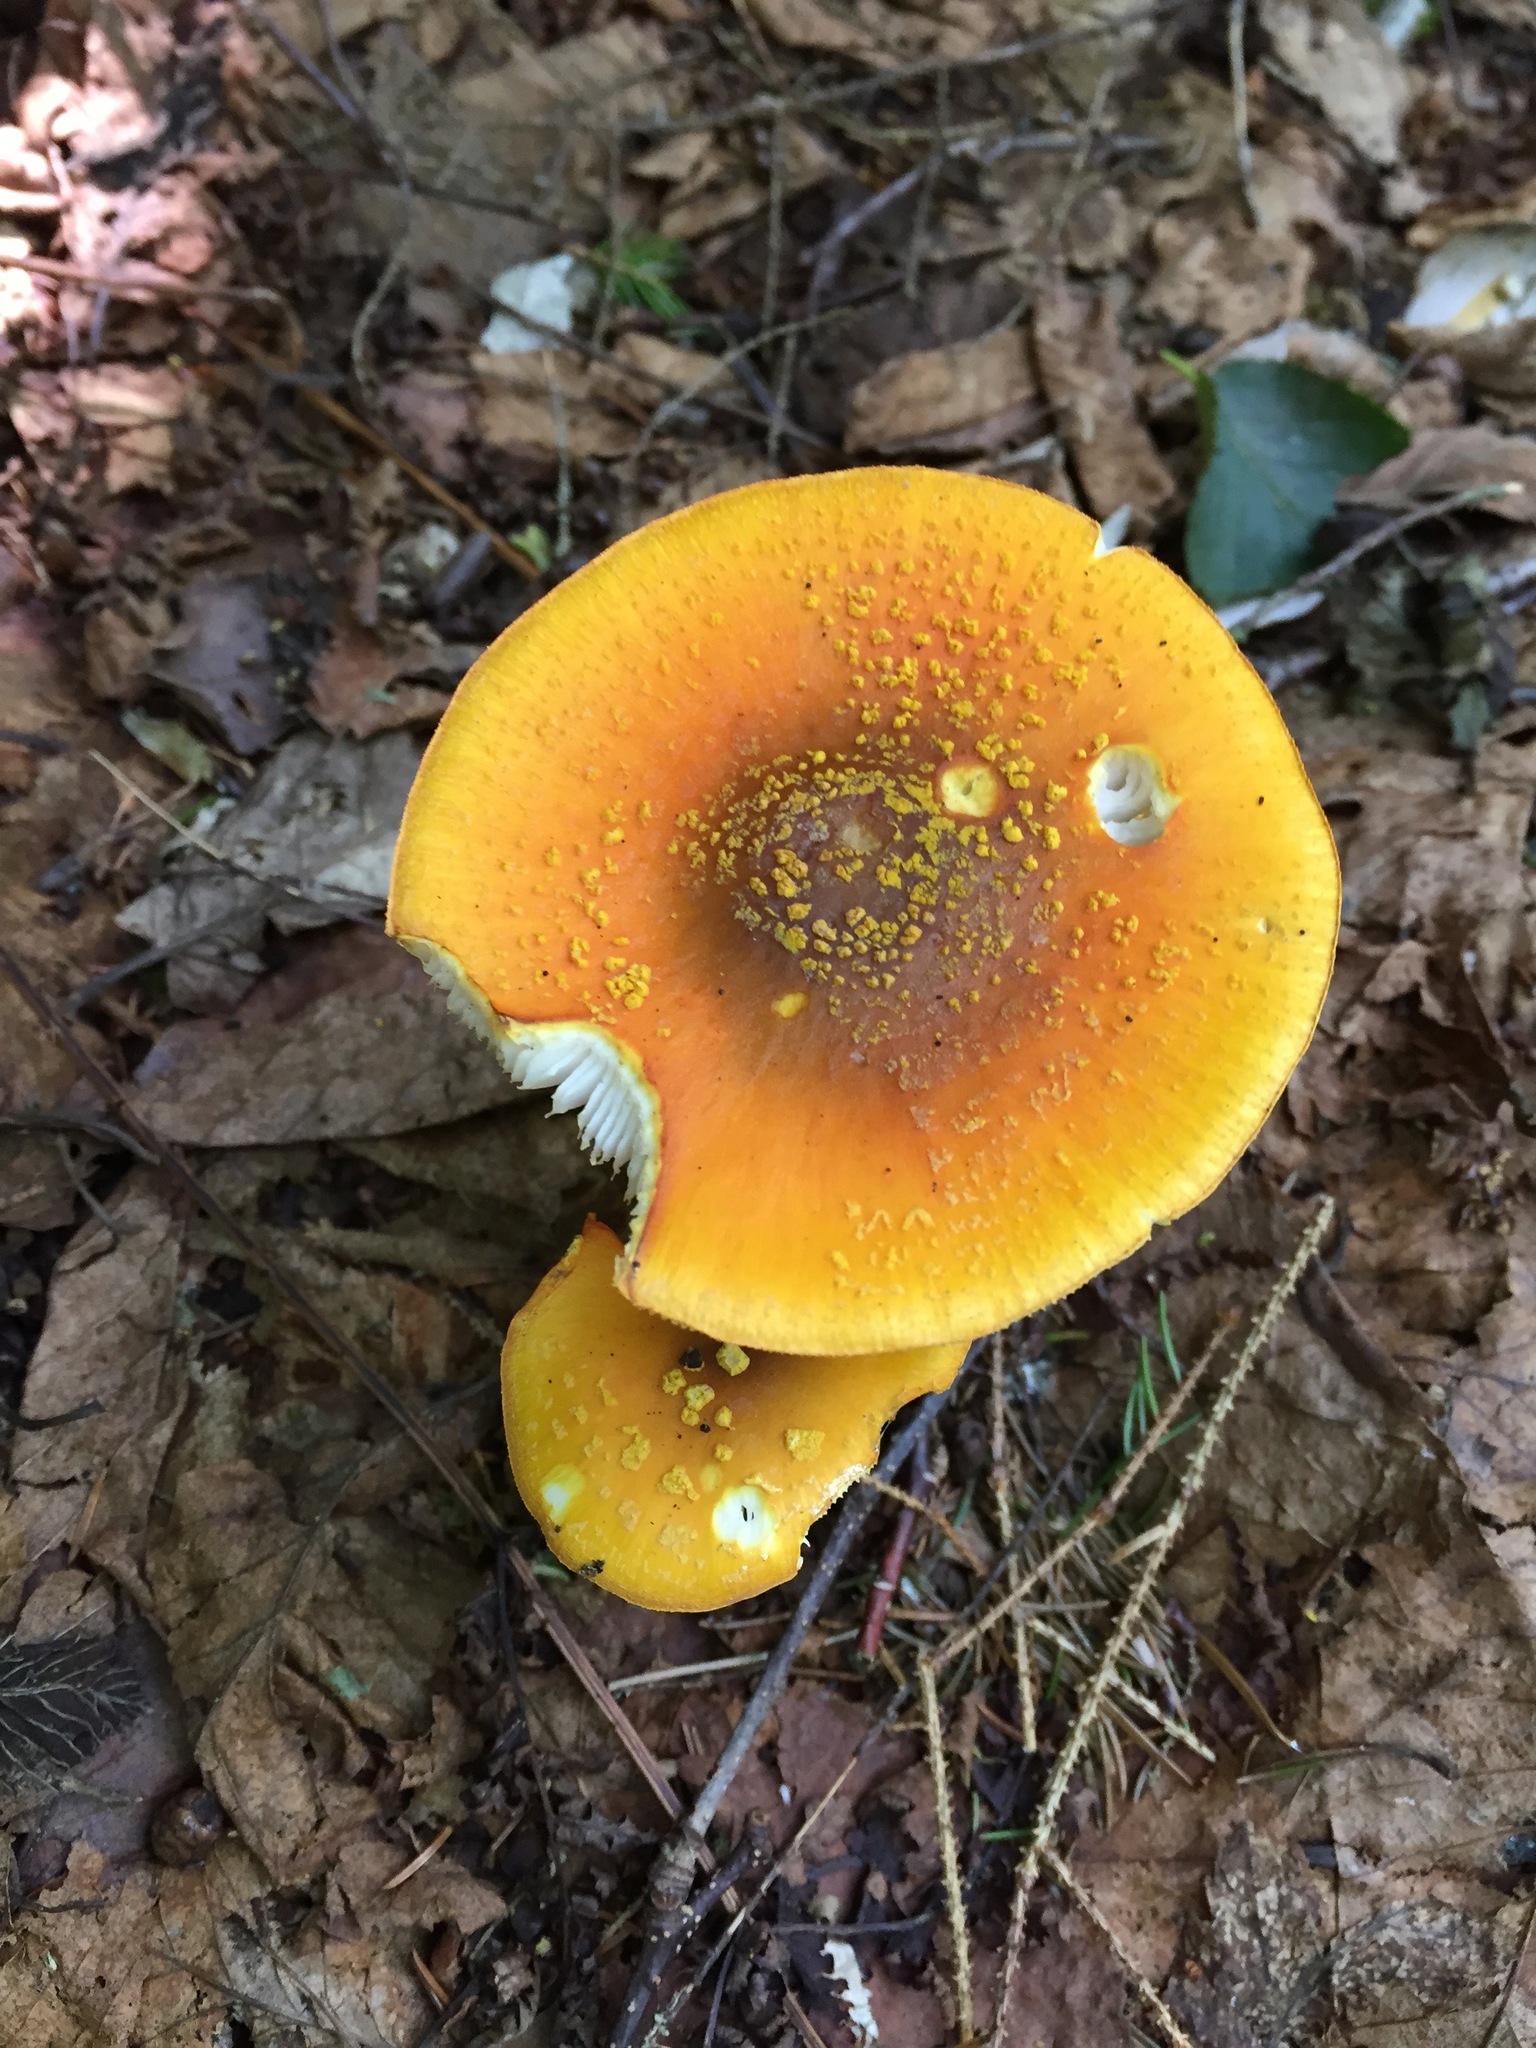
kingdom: Fungi
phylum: Basidiomycota
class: Agaricomycetes
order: Agaricales
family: Amanitaceae
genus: Amanita
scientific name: Amanita flavoconia
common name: Yellow patches
